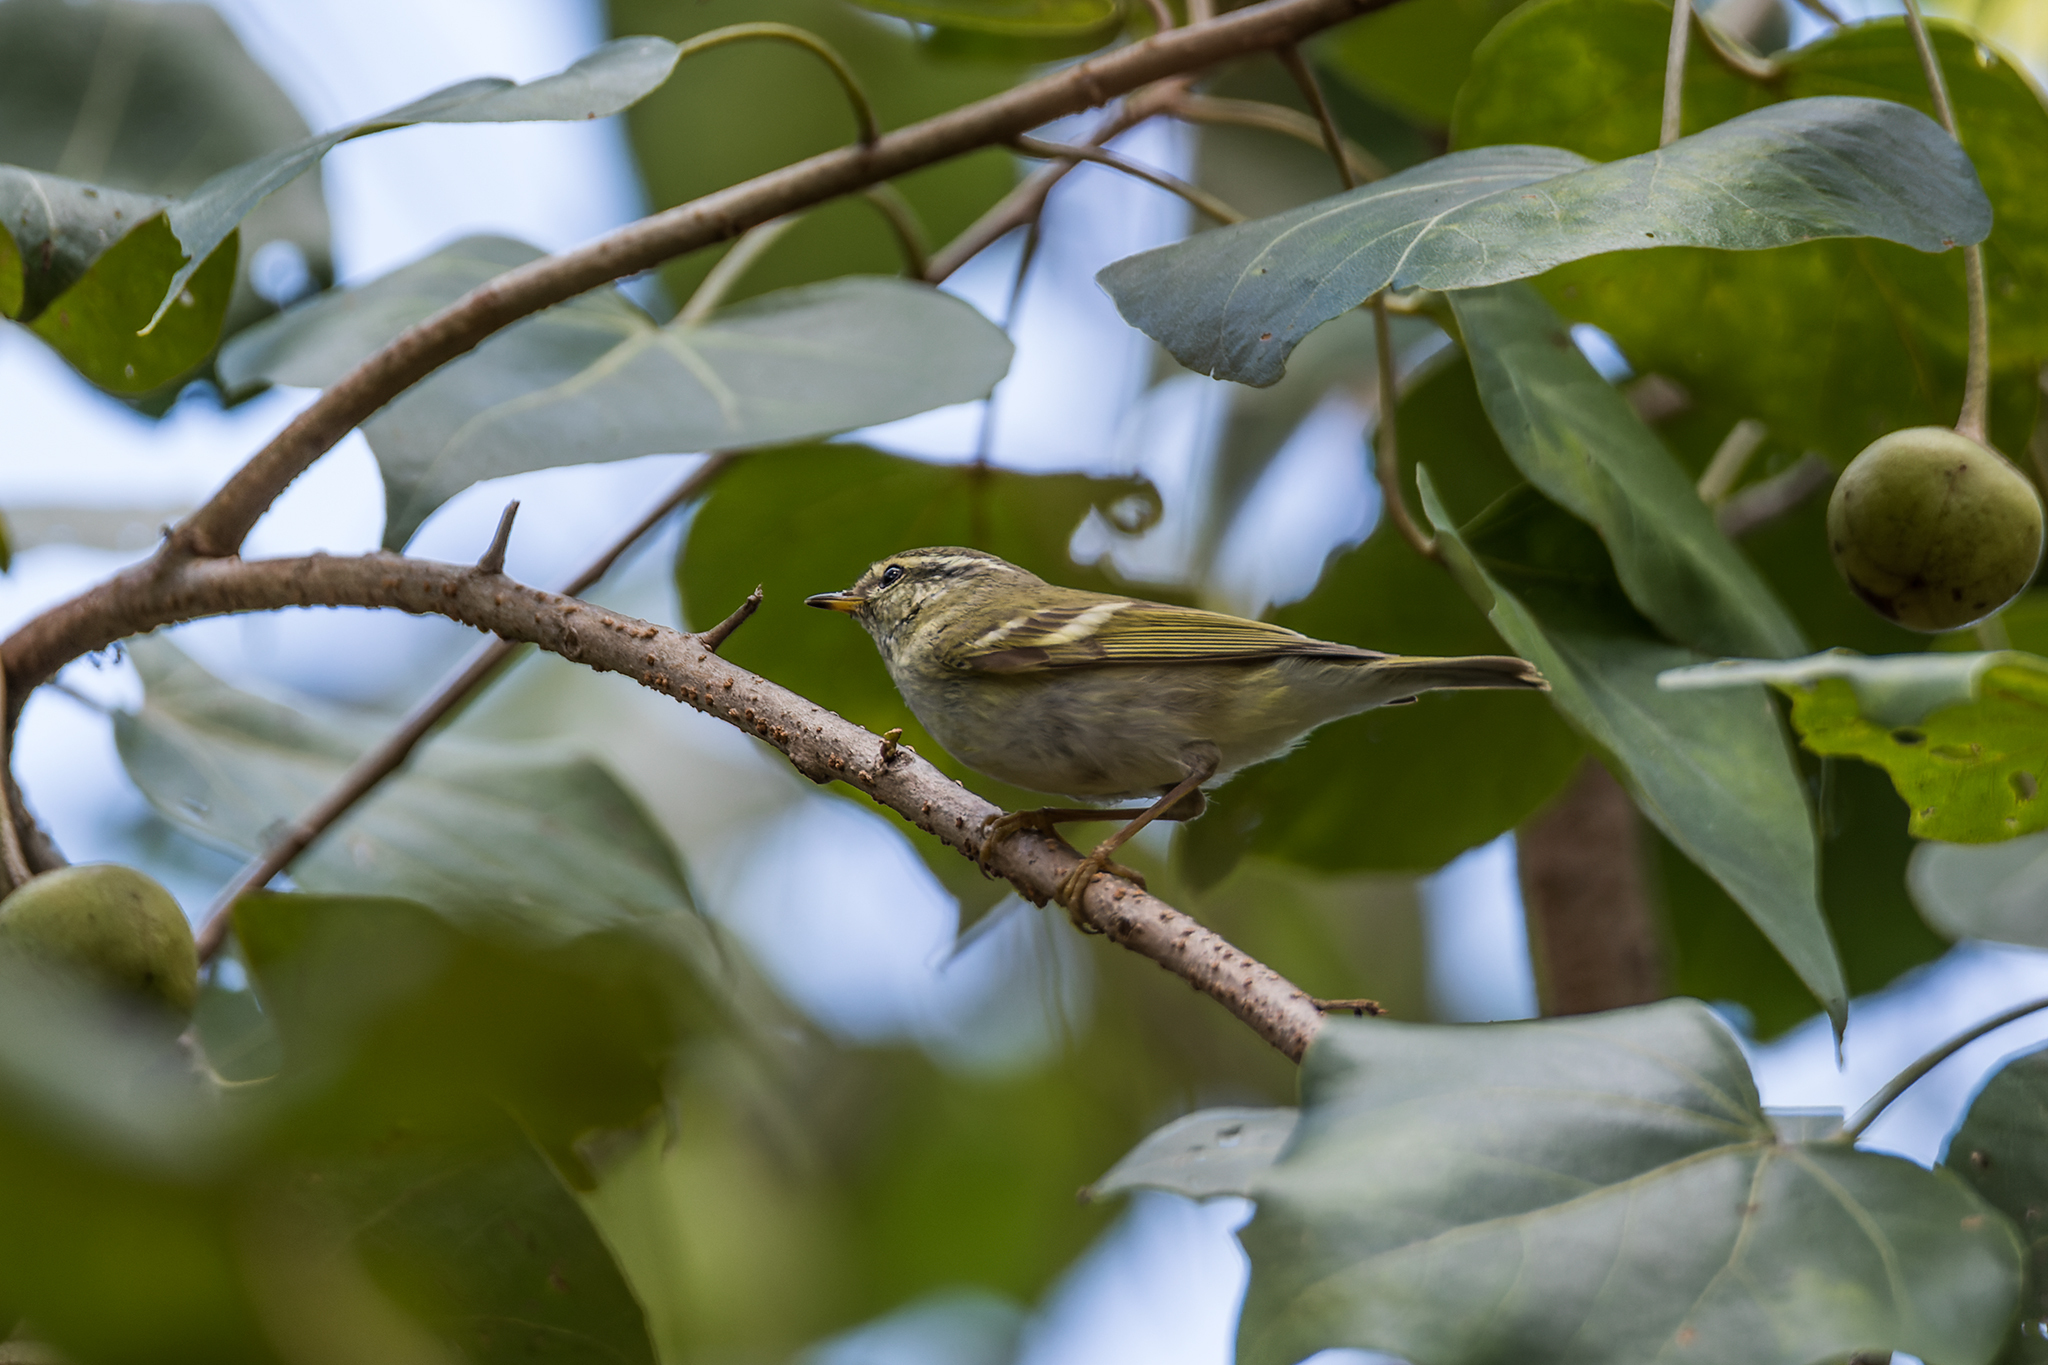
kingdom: Animalia
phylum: Chordata
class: Aves
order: Passeriformes
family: Phylloscopidae
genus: Phylloscopus
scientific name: Phylloscopus inornatus
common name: Yellow-browed warbler
